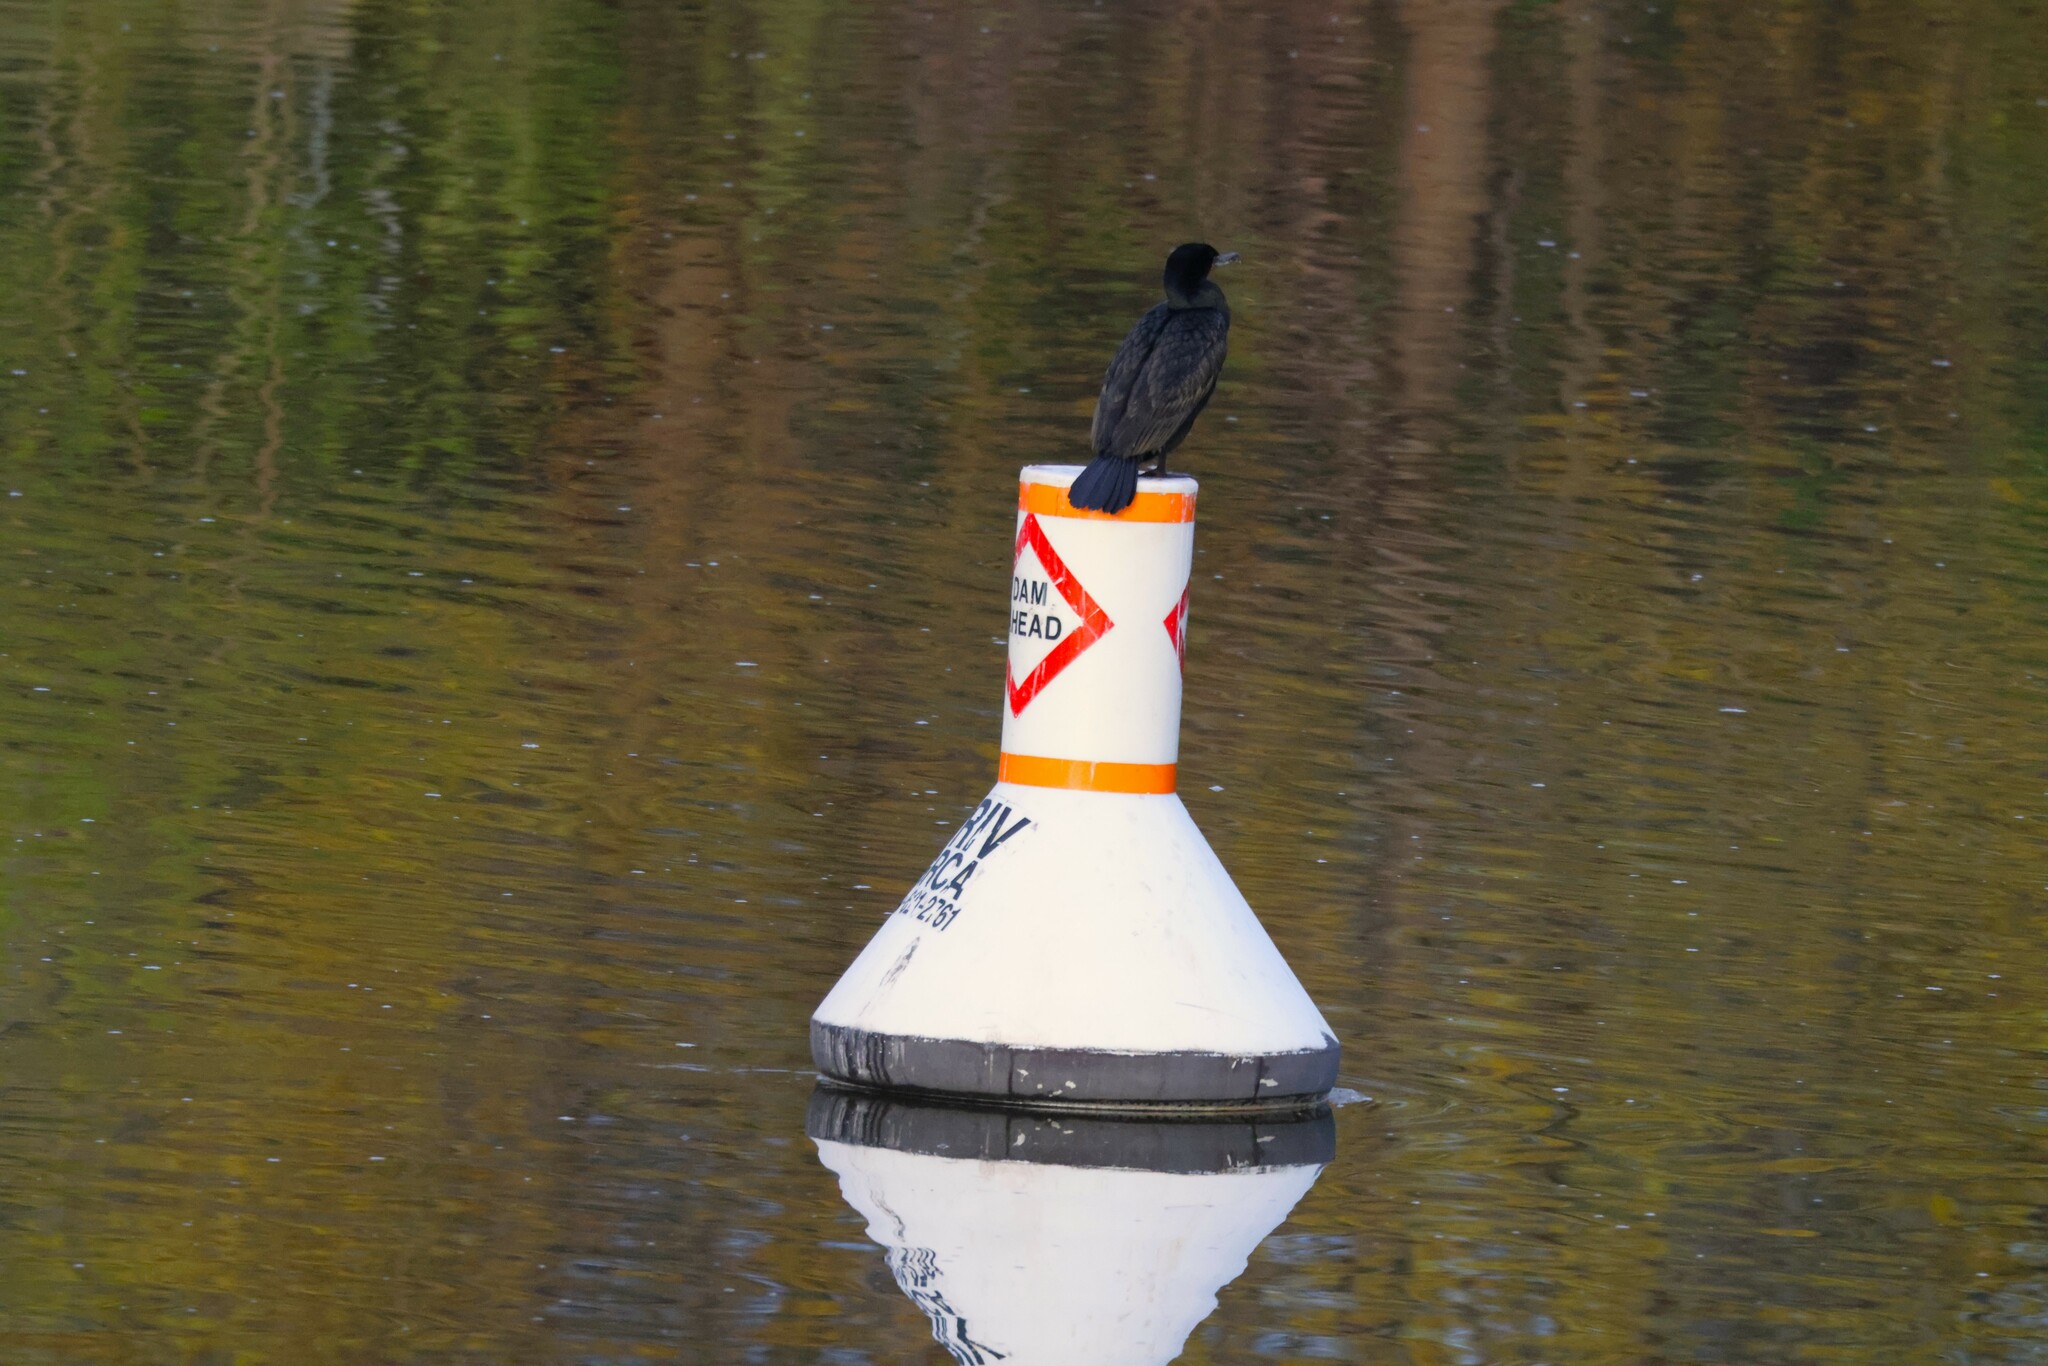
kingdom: Animalia
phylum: Chordata
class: Aves
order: Suliformes
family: Phalacrocoracidae
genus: Phalacrocorax
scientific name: Phalacrocorax auritus
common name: Double-crested cormorant
